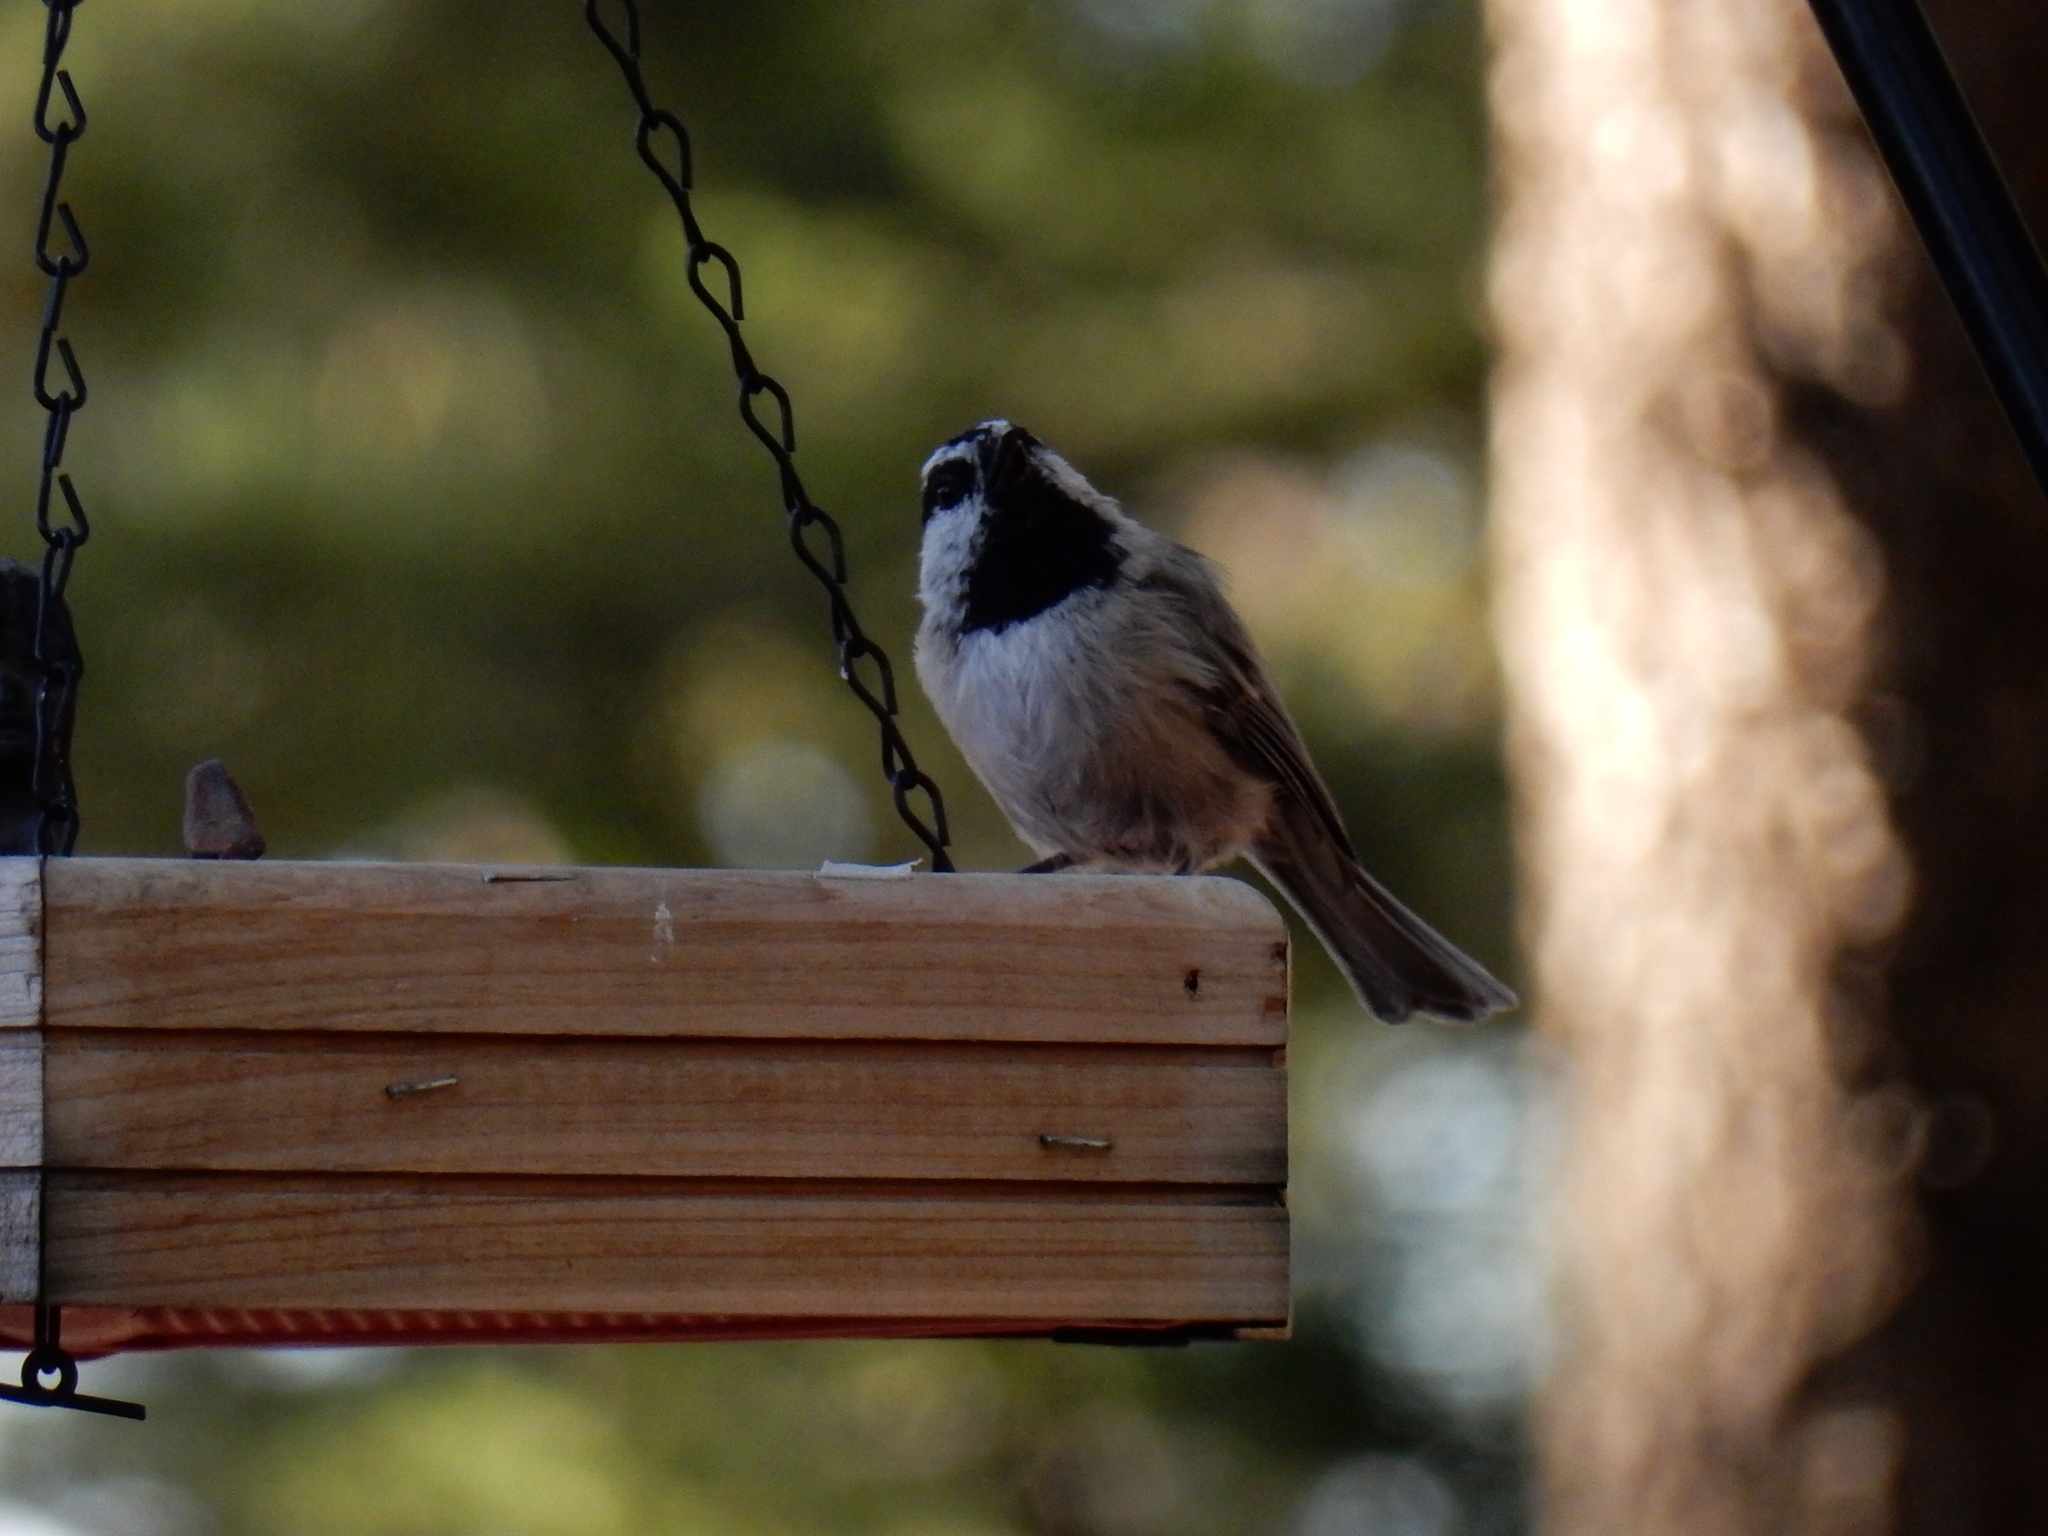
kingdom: Animalia
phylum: Chordata
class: Aves
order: Passeriformes
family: Paridae
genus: Poecile
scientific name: Poecile gambeli
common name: Mountain chickadee
